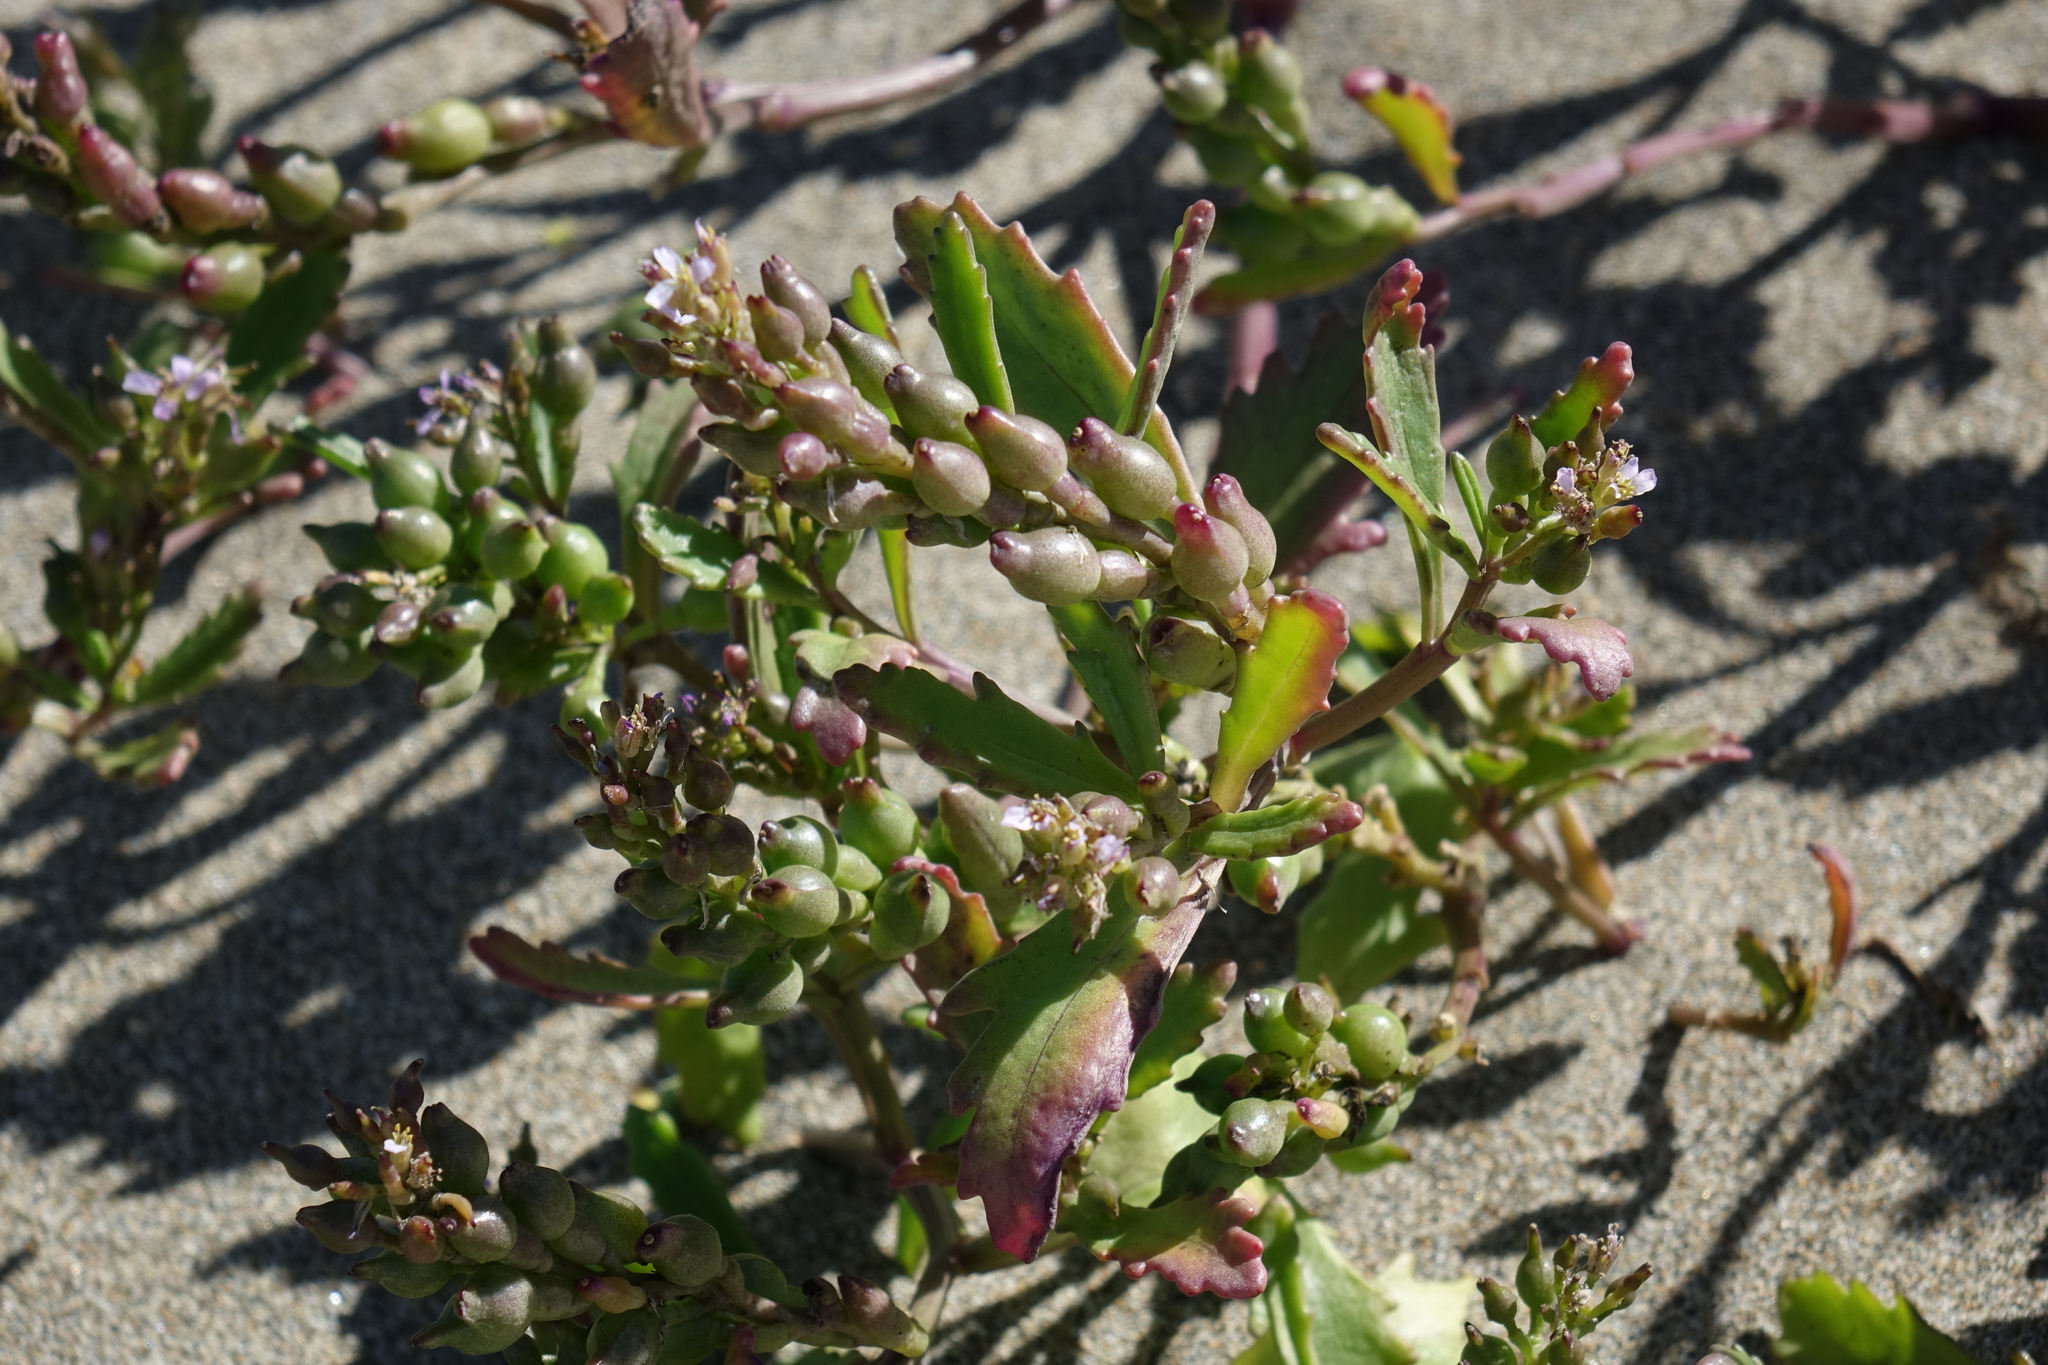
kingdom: Plantae
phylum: Tracheophyta
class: Magnoliopsida
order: Brassicales
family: Brassicaceae
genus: Cakile
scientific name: Cakile edentula
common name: American sea rocket
